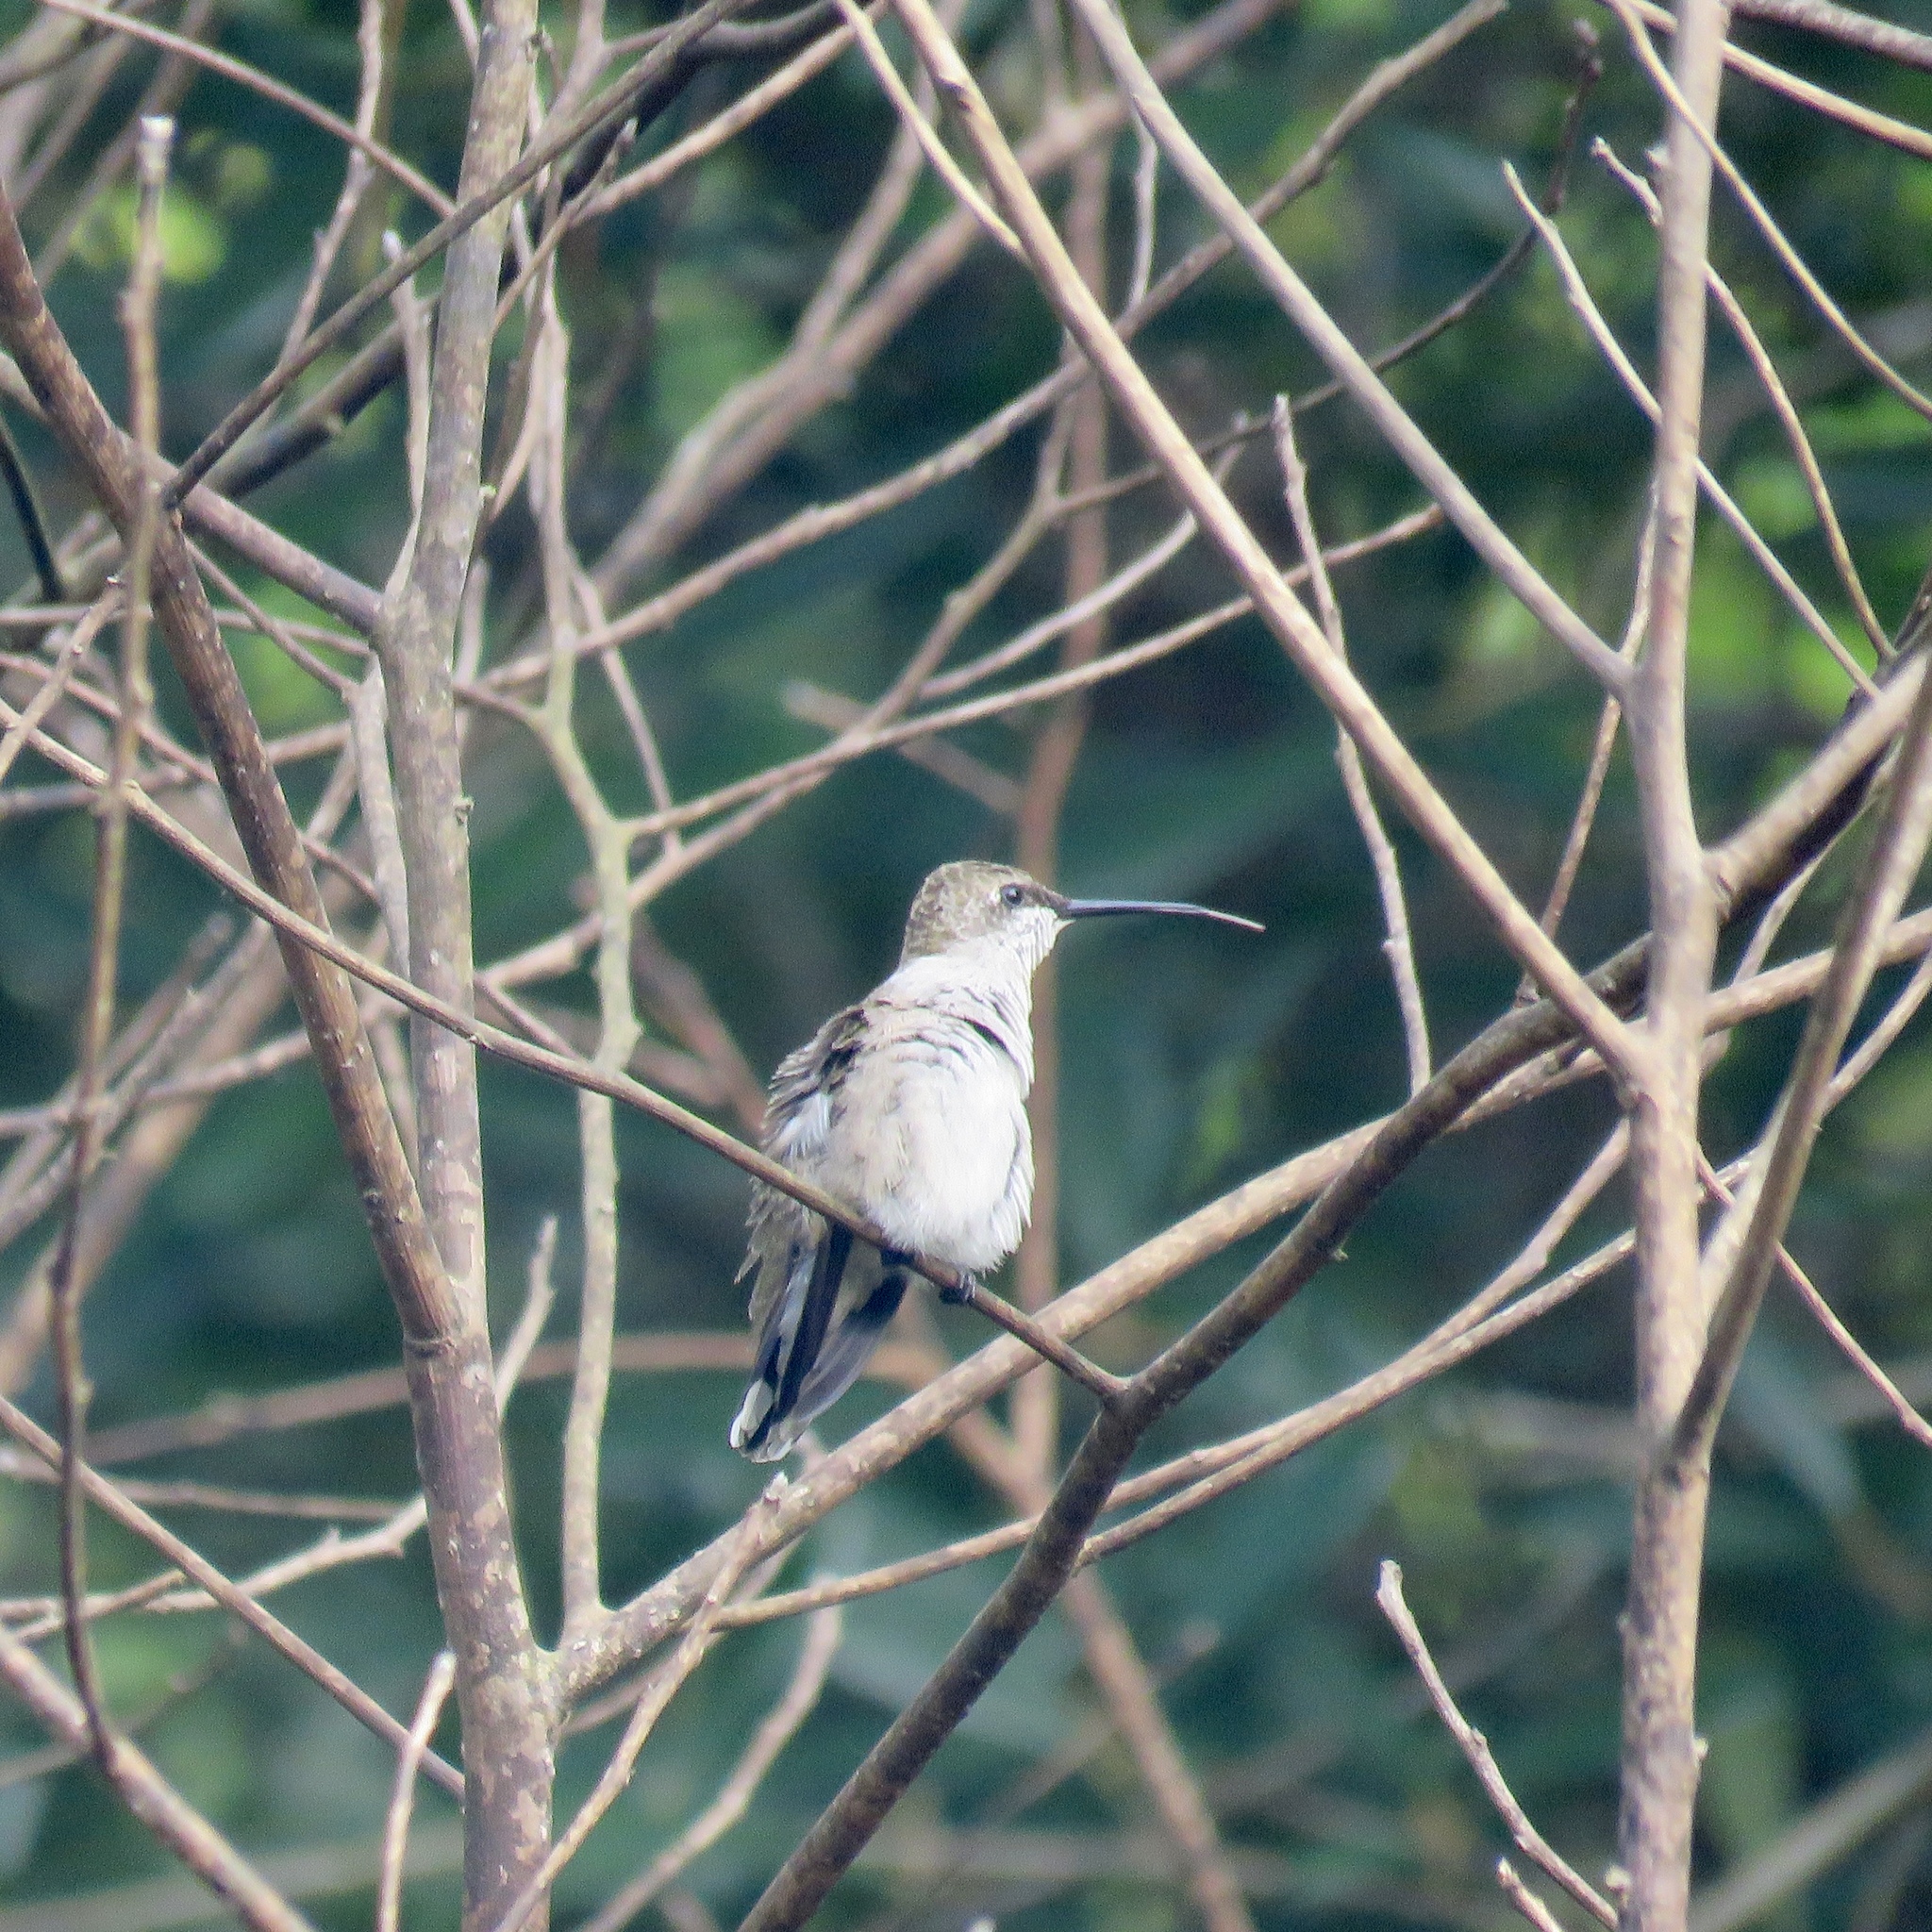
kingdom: Animalia
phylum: Chordata
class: Aves
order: Apodiformes
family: Trochilidae
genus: Archilochus
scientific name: Archilochus colubris
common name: Ruby-throated hummingbird
